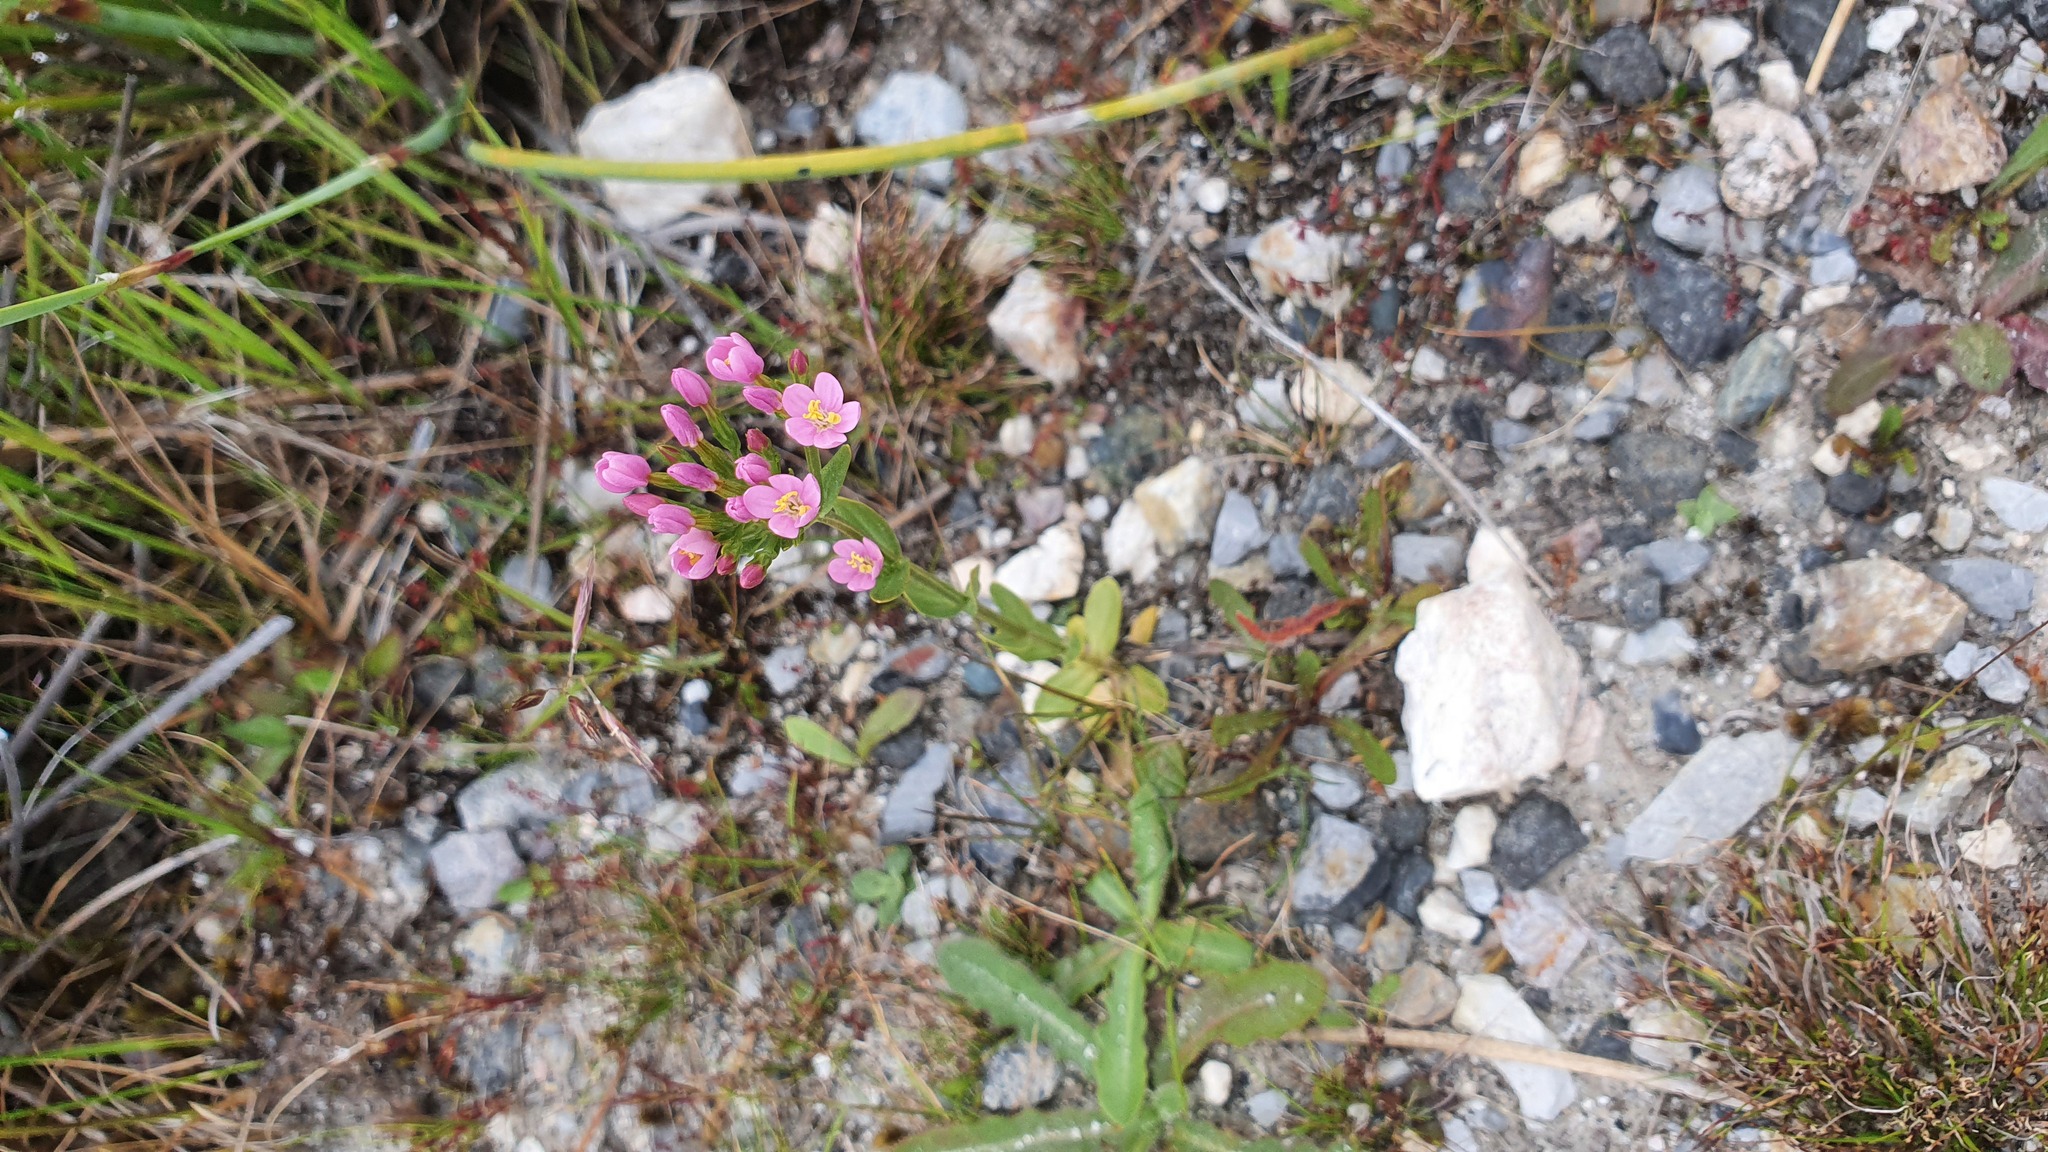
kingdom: Plantae
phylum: Tracheophyta
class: Magnoliopsida
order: Gentianales
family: Gentianaceae
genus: Centaurium
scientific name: Centaurium erythraea
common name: Common centaury
